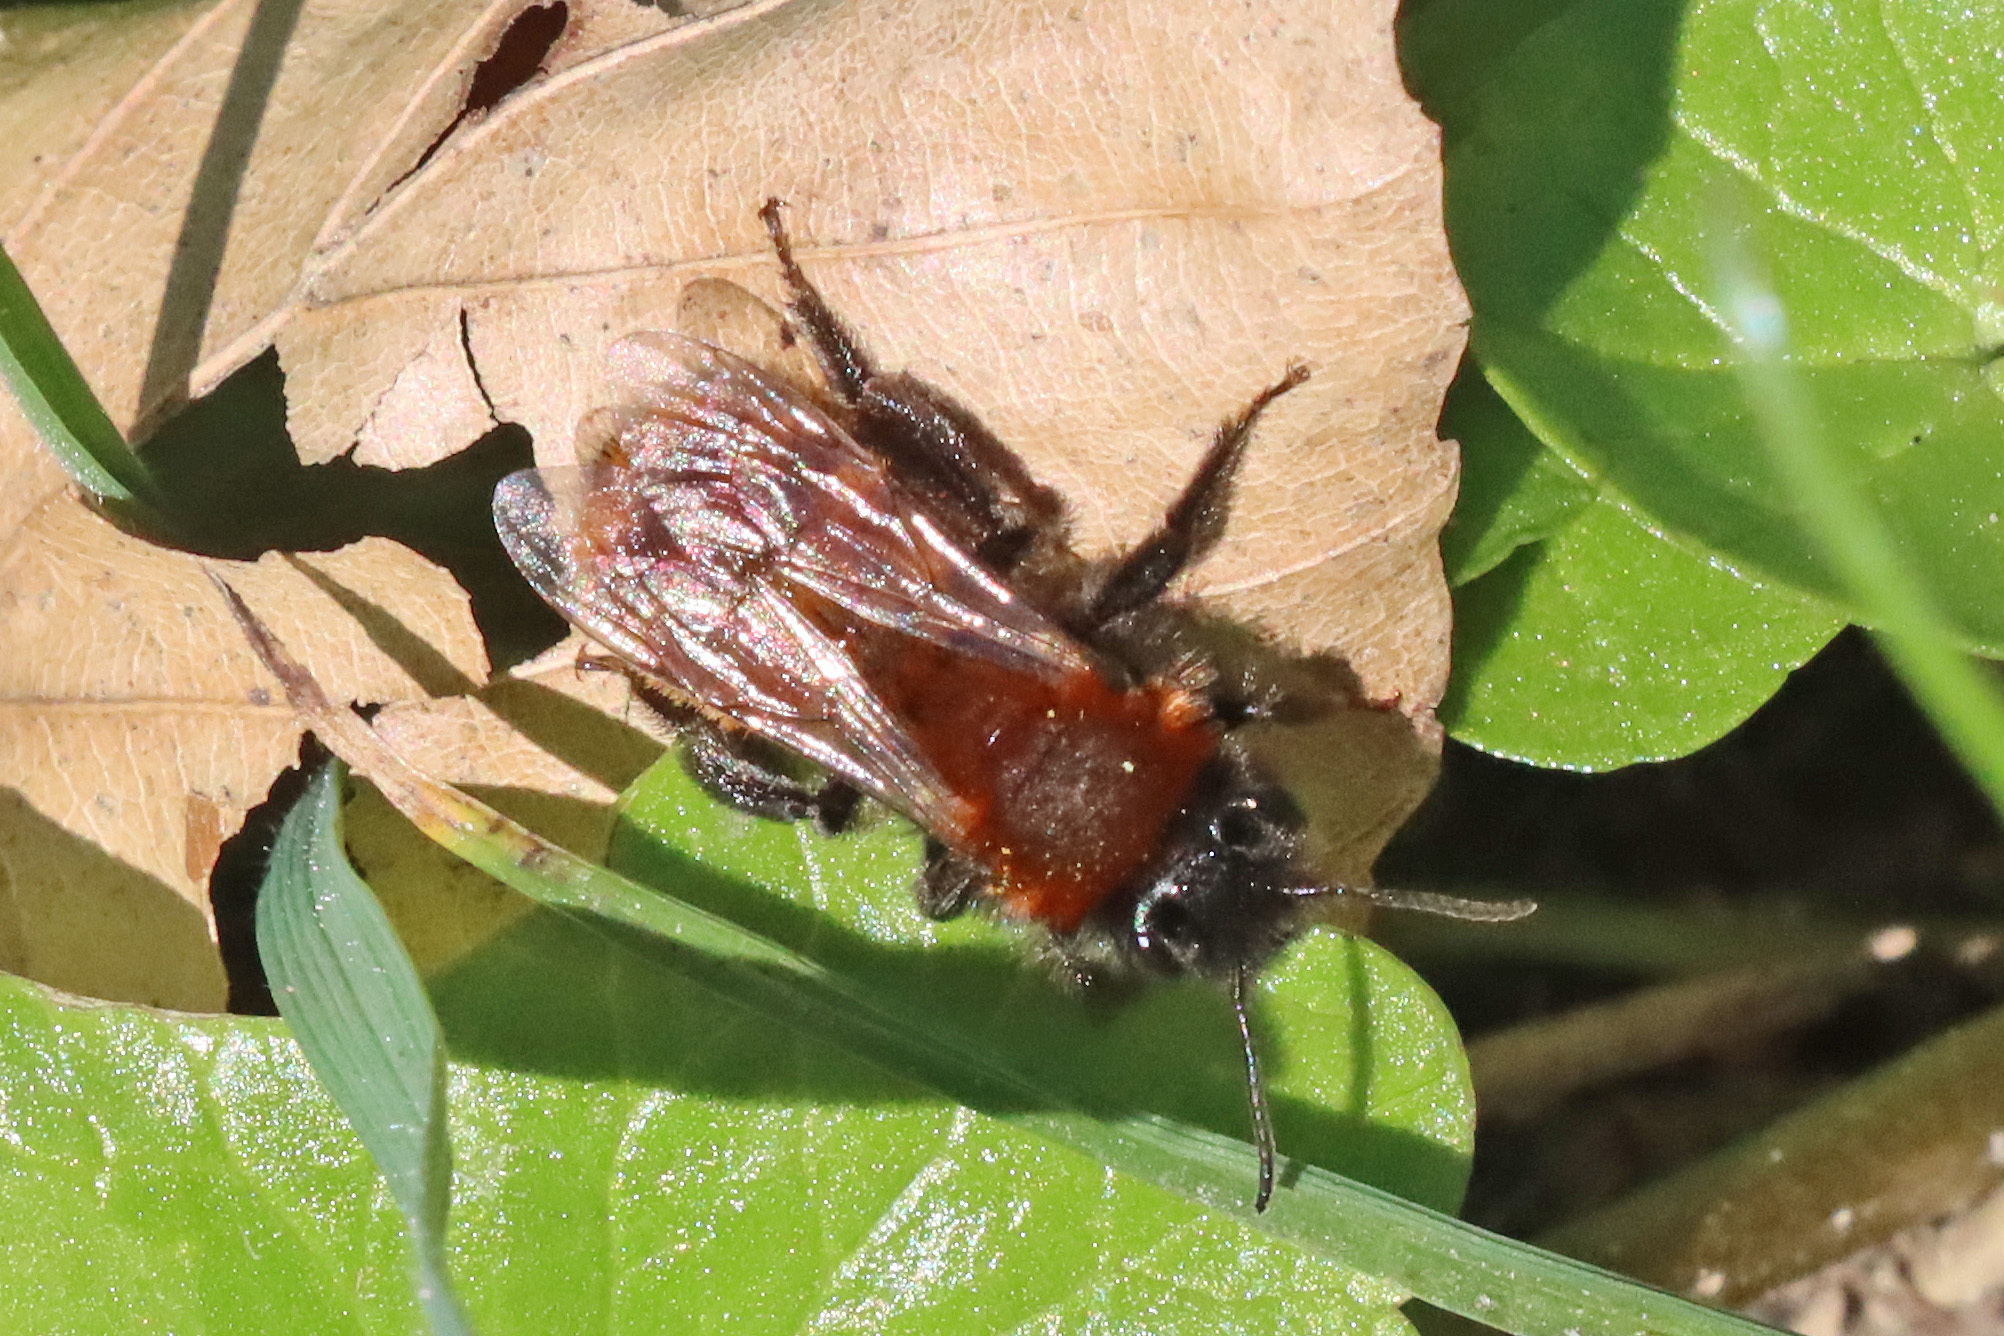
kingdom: Animalia
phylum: Arthropoda
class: Insecta
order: Hymenoptera
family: Andrenidae
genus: Andrena
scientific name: Andrena fulva
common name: Tawny mining bee
